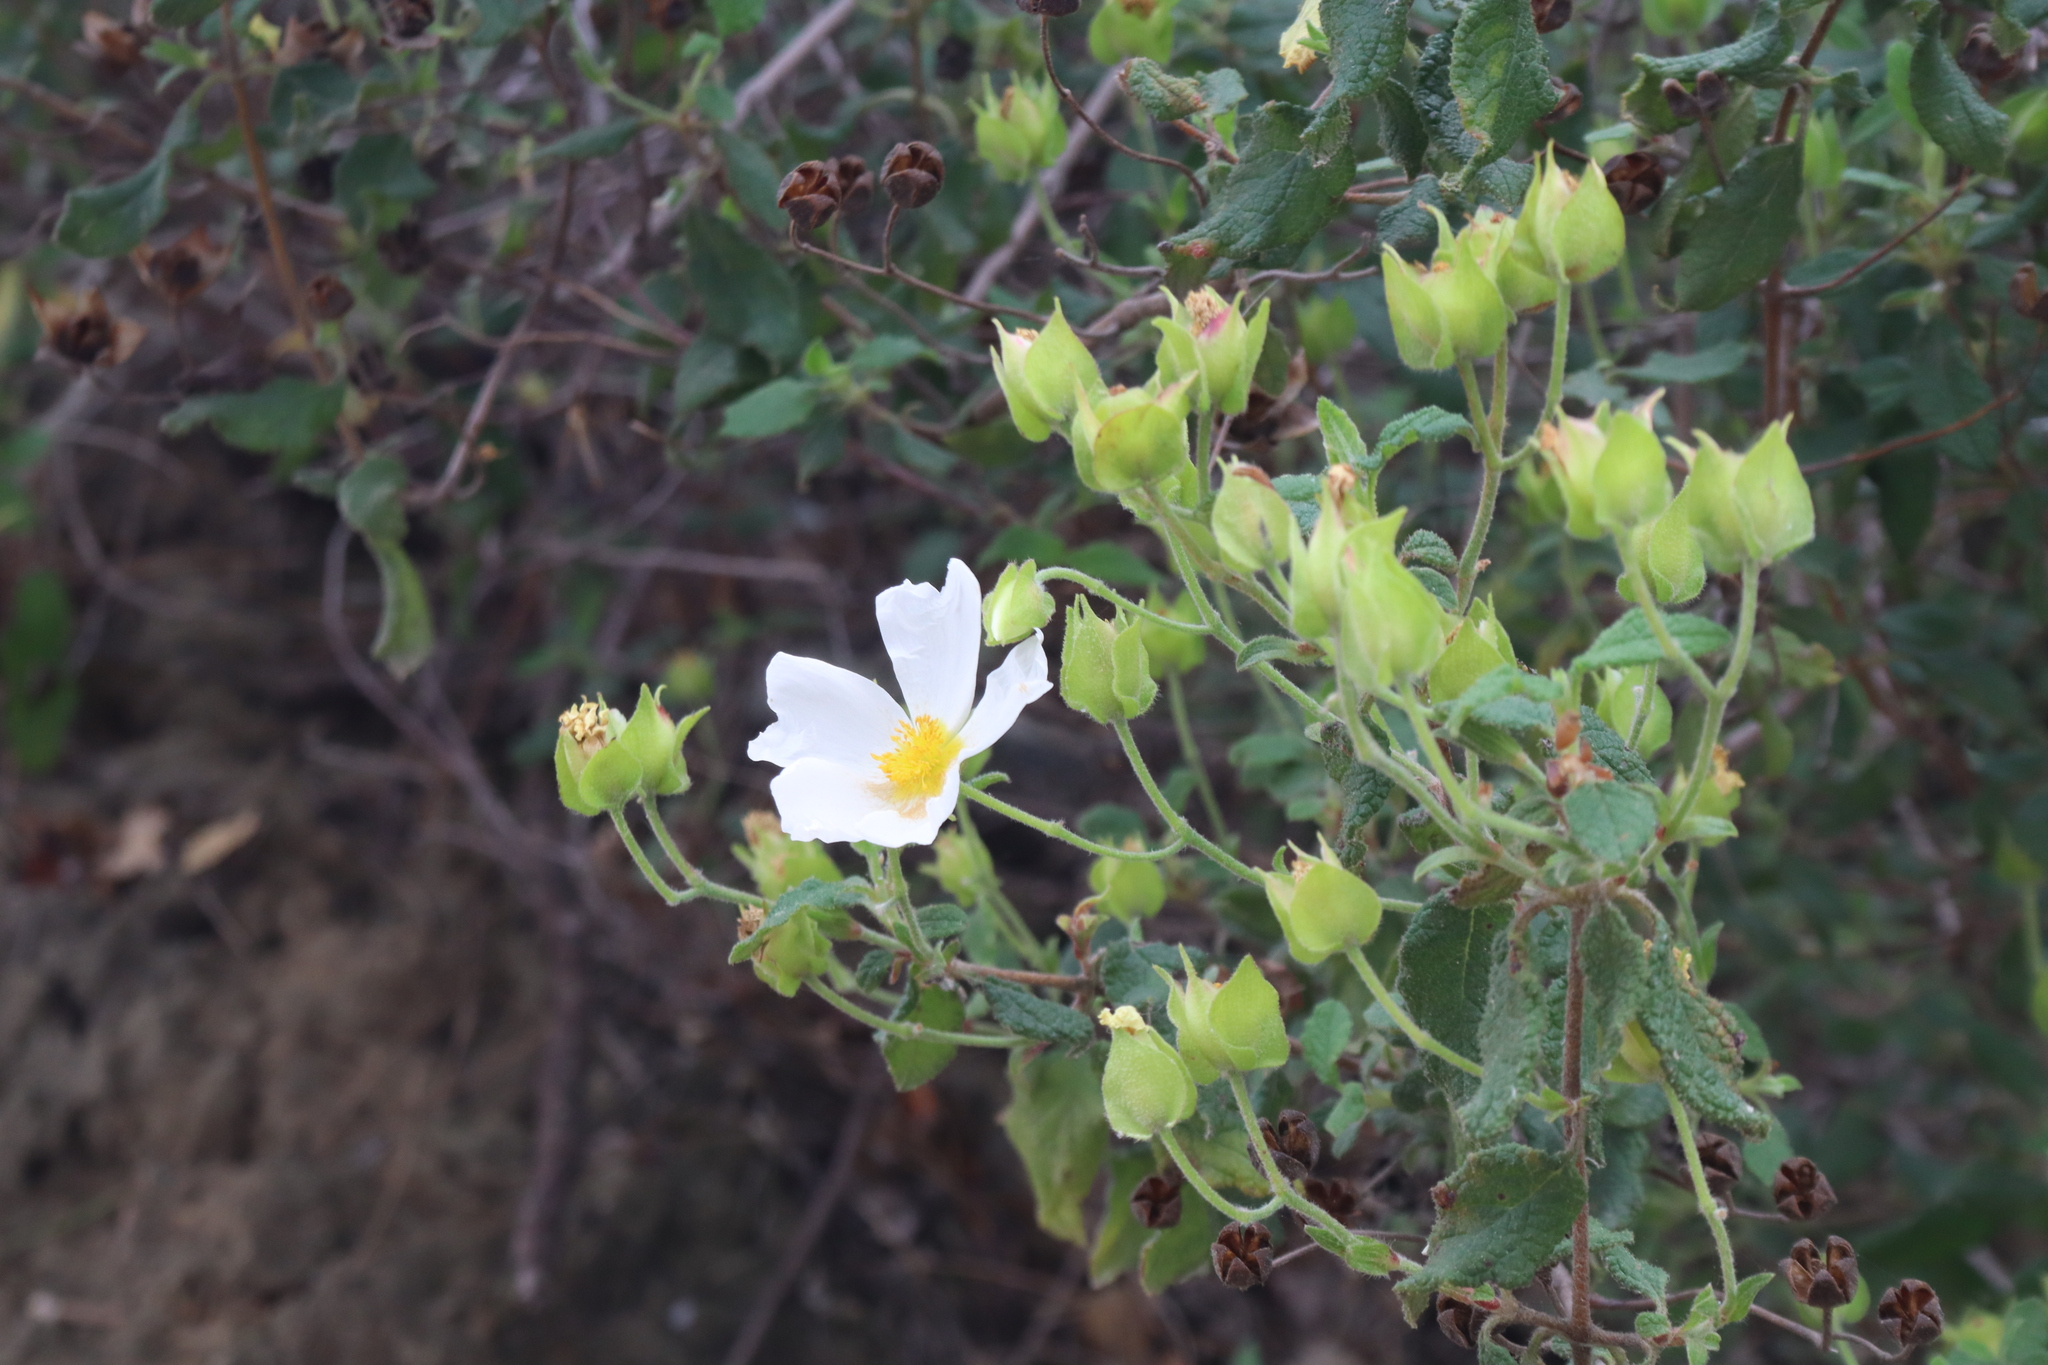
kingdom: Plantae
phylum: Tracheophyta
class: Magnoliopsida
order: Malvales
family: Cistaceae
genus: Cistus
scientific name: Cistus salviifolius
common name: Salvia cistus
